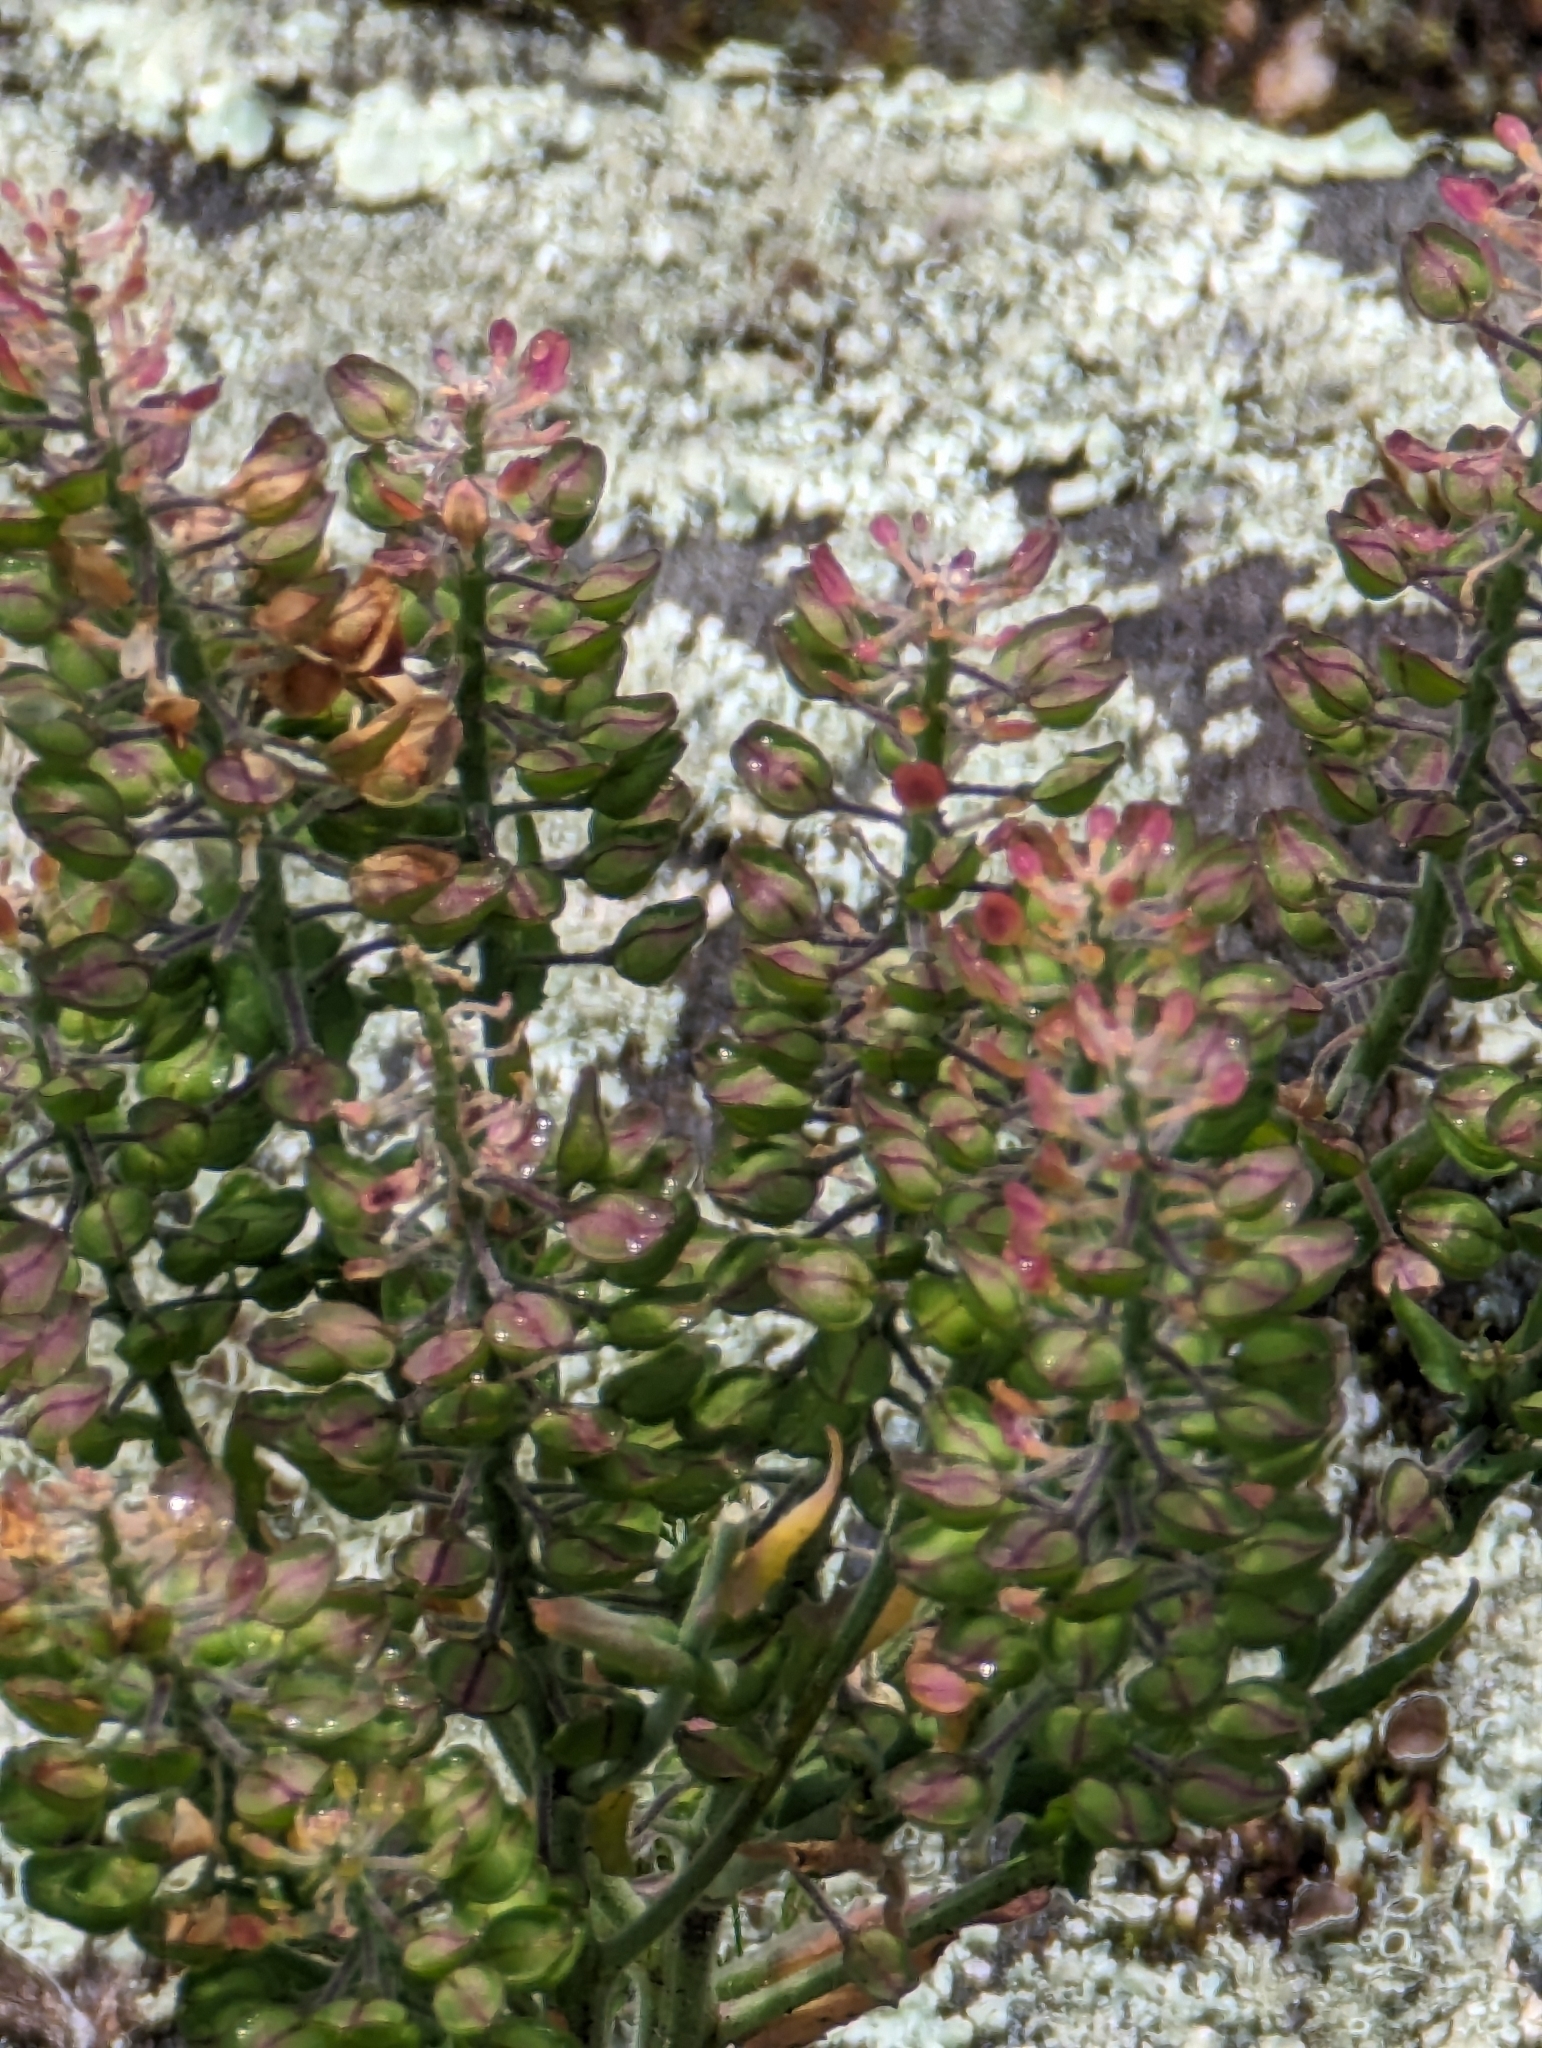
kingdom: Plantae
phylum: Tracheophyta
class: Magnoliopsida
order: Brassicales
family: Brassicaceae
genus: Lepidium
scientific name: Lepidium campestre
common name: Field pepperwort
